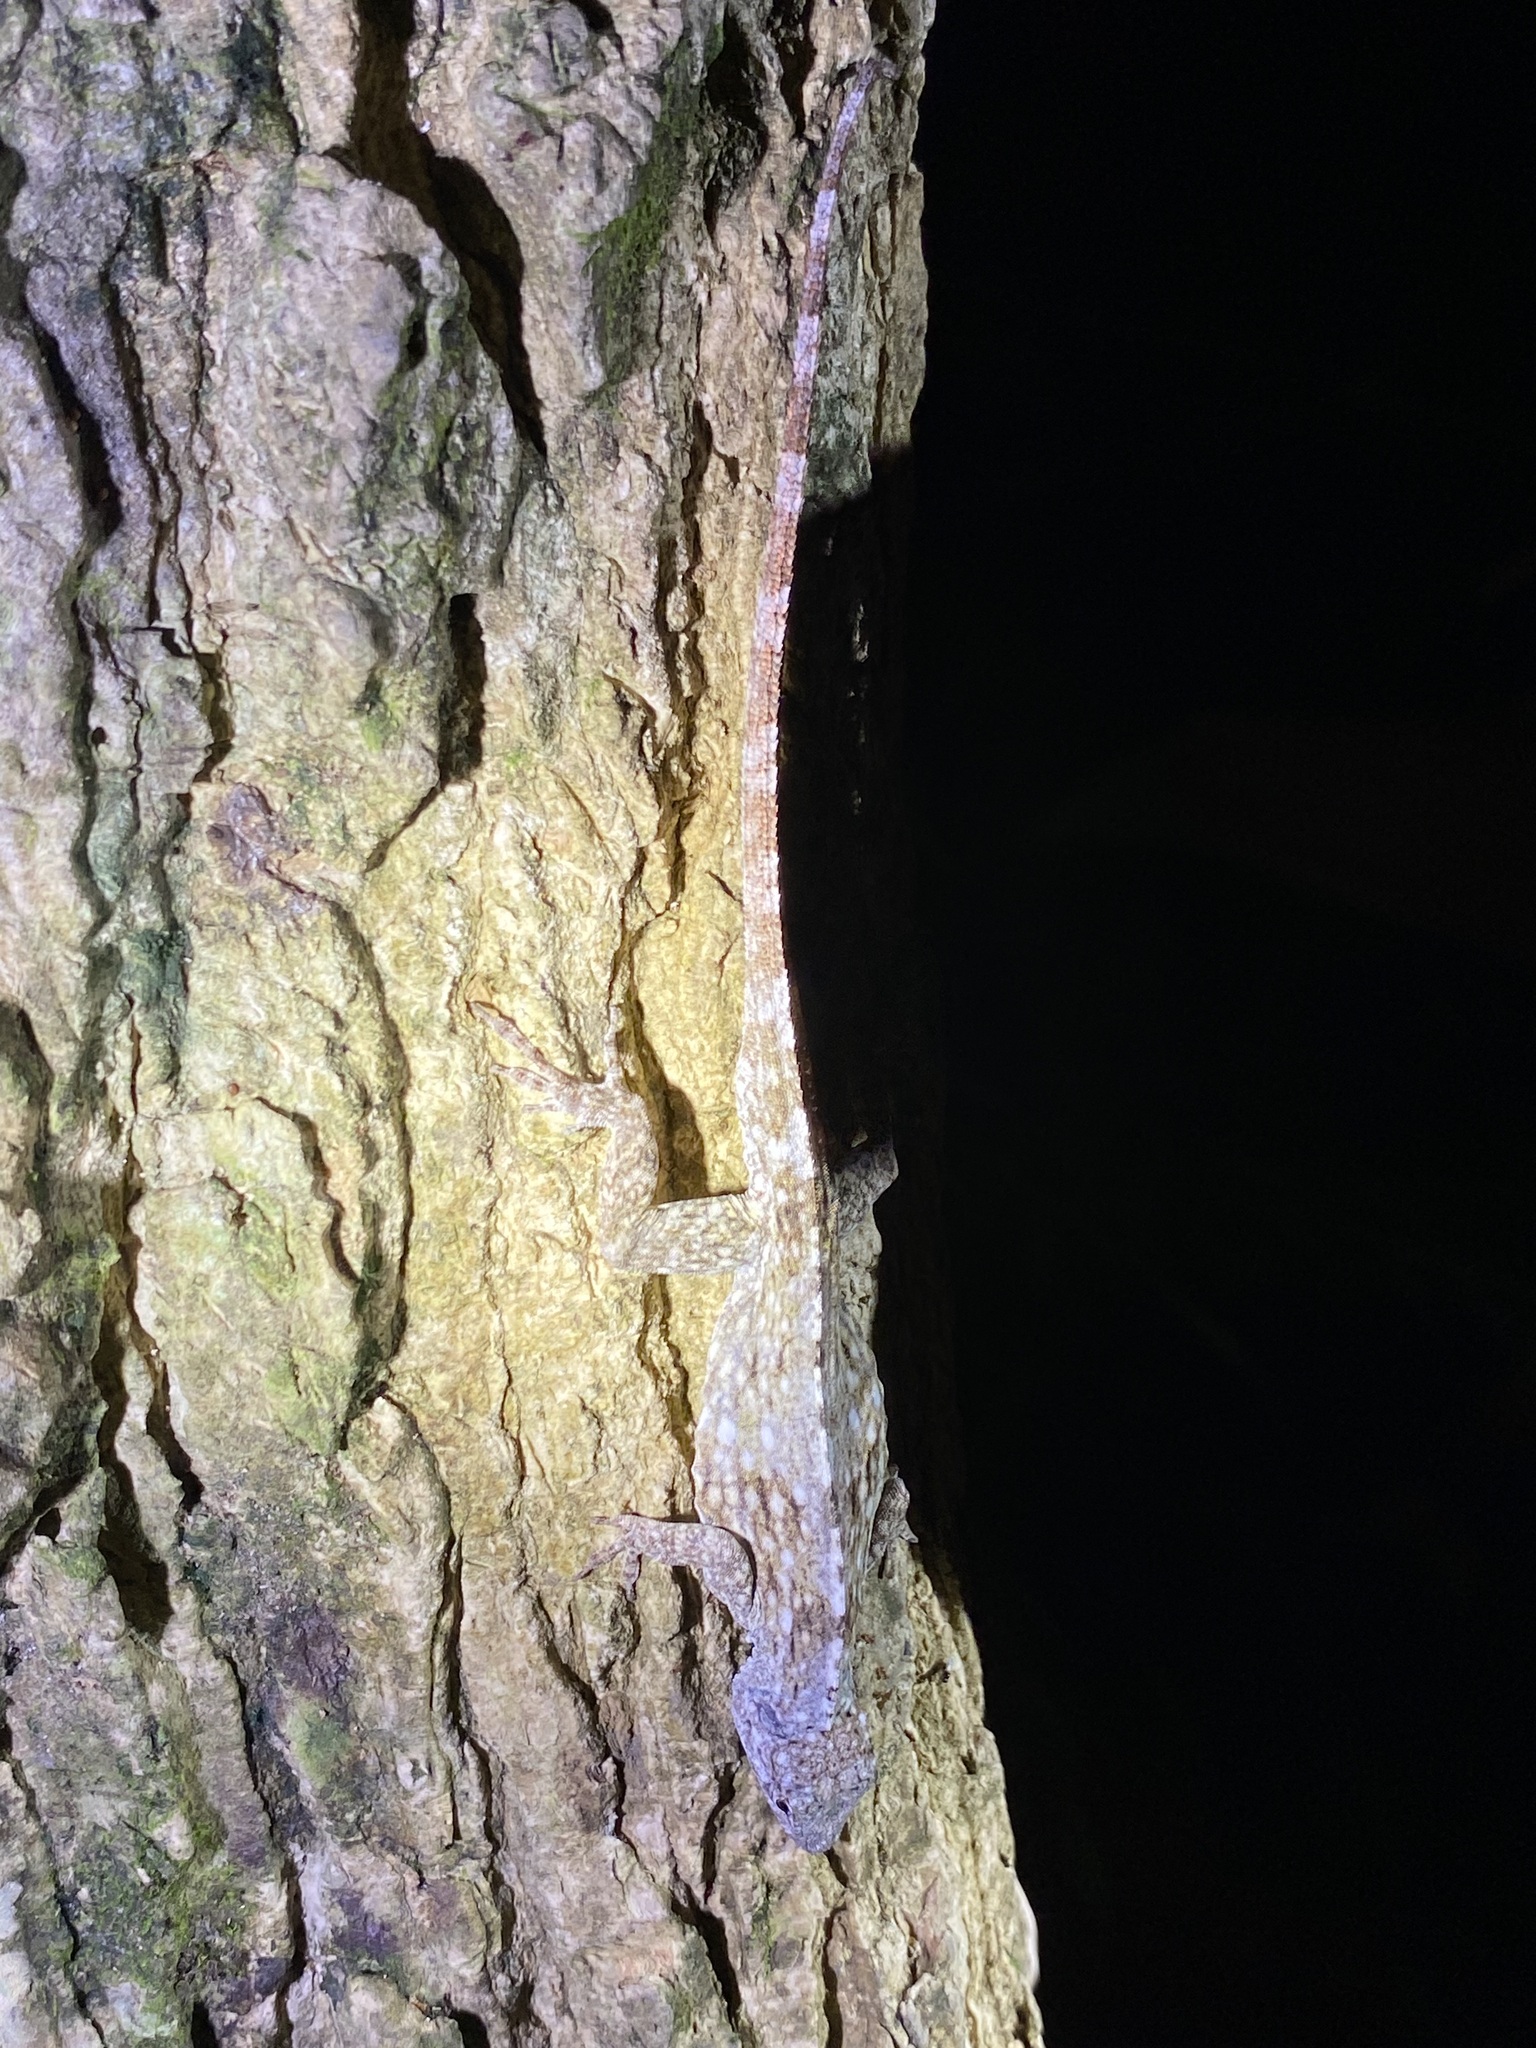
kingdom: Animalia
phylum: Chordata
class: Squamata
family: Dactyloidae
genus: Anolis
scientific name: Anolis charlesmyersi
